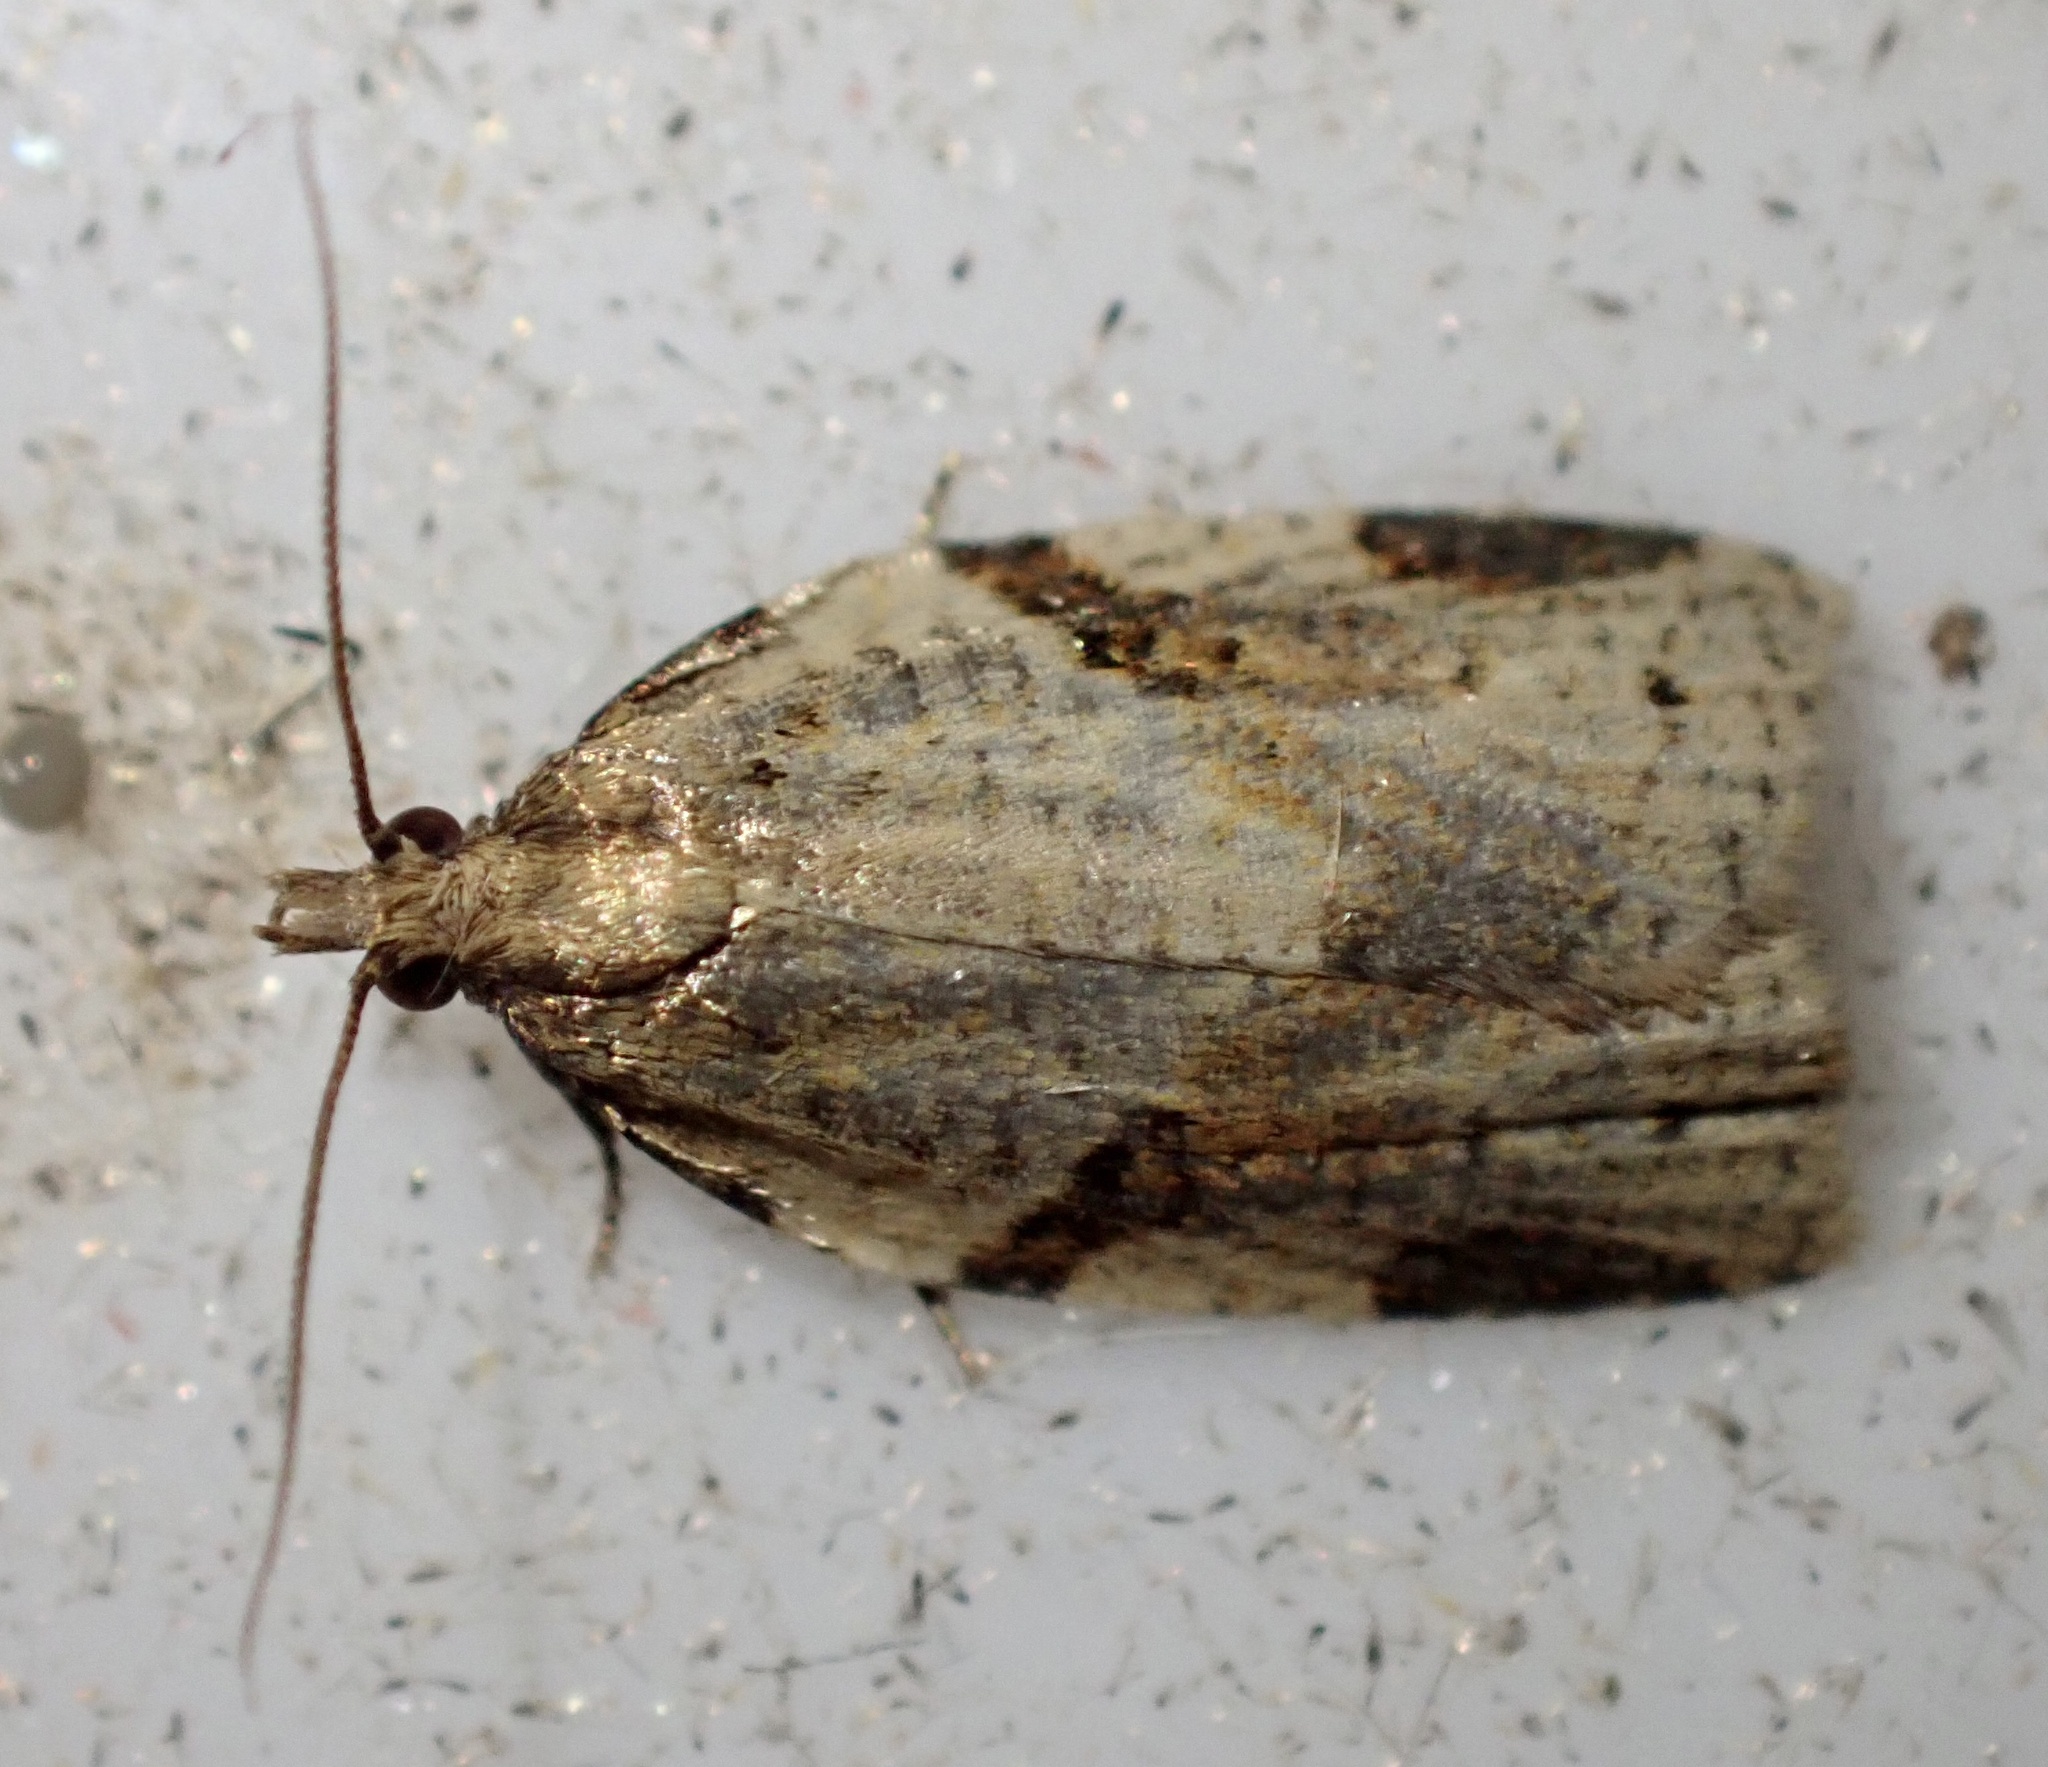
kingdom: Animalia
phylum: Arthropoda
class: Insecta
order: Lepidoptera
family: Tortricidae
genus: Clepsis
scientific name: Clepsis spectrana
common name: Cyclamen tortrix
